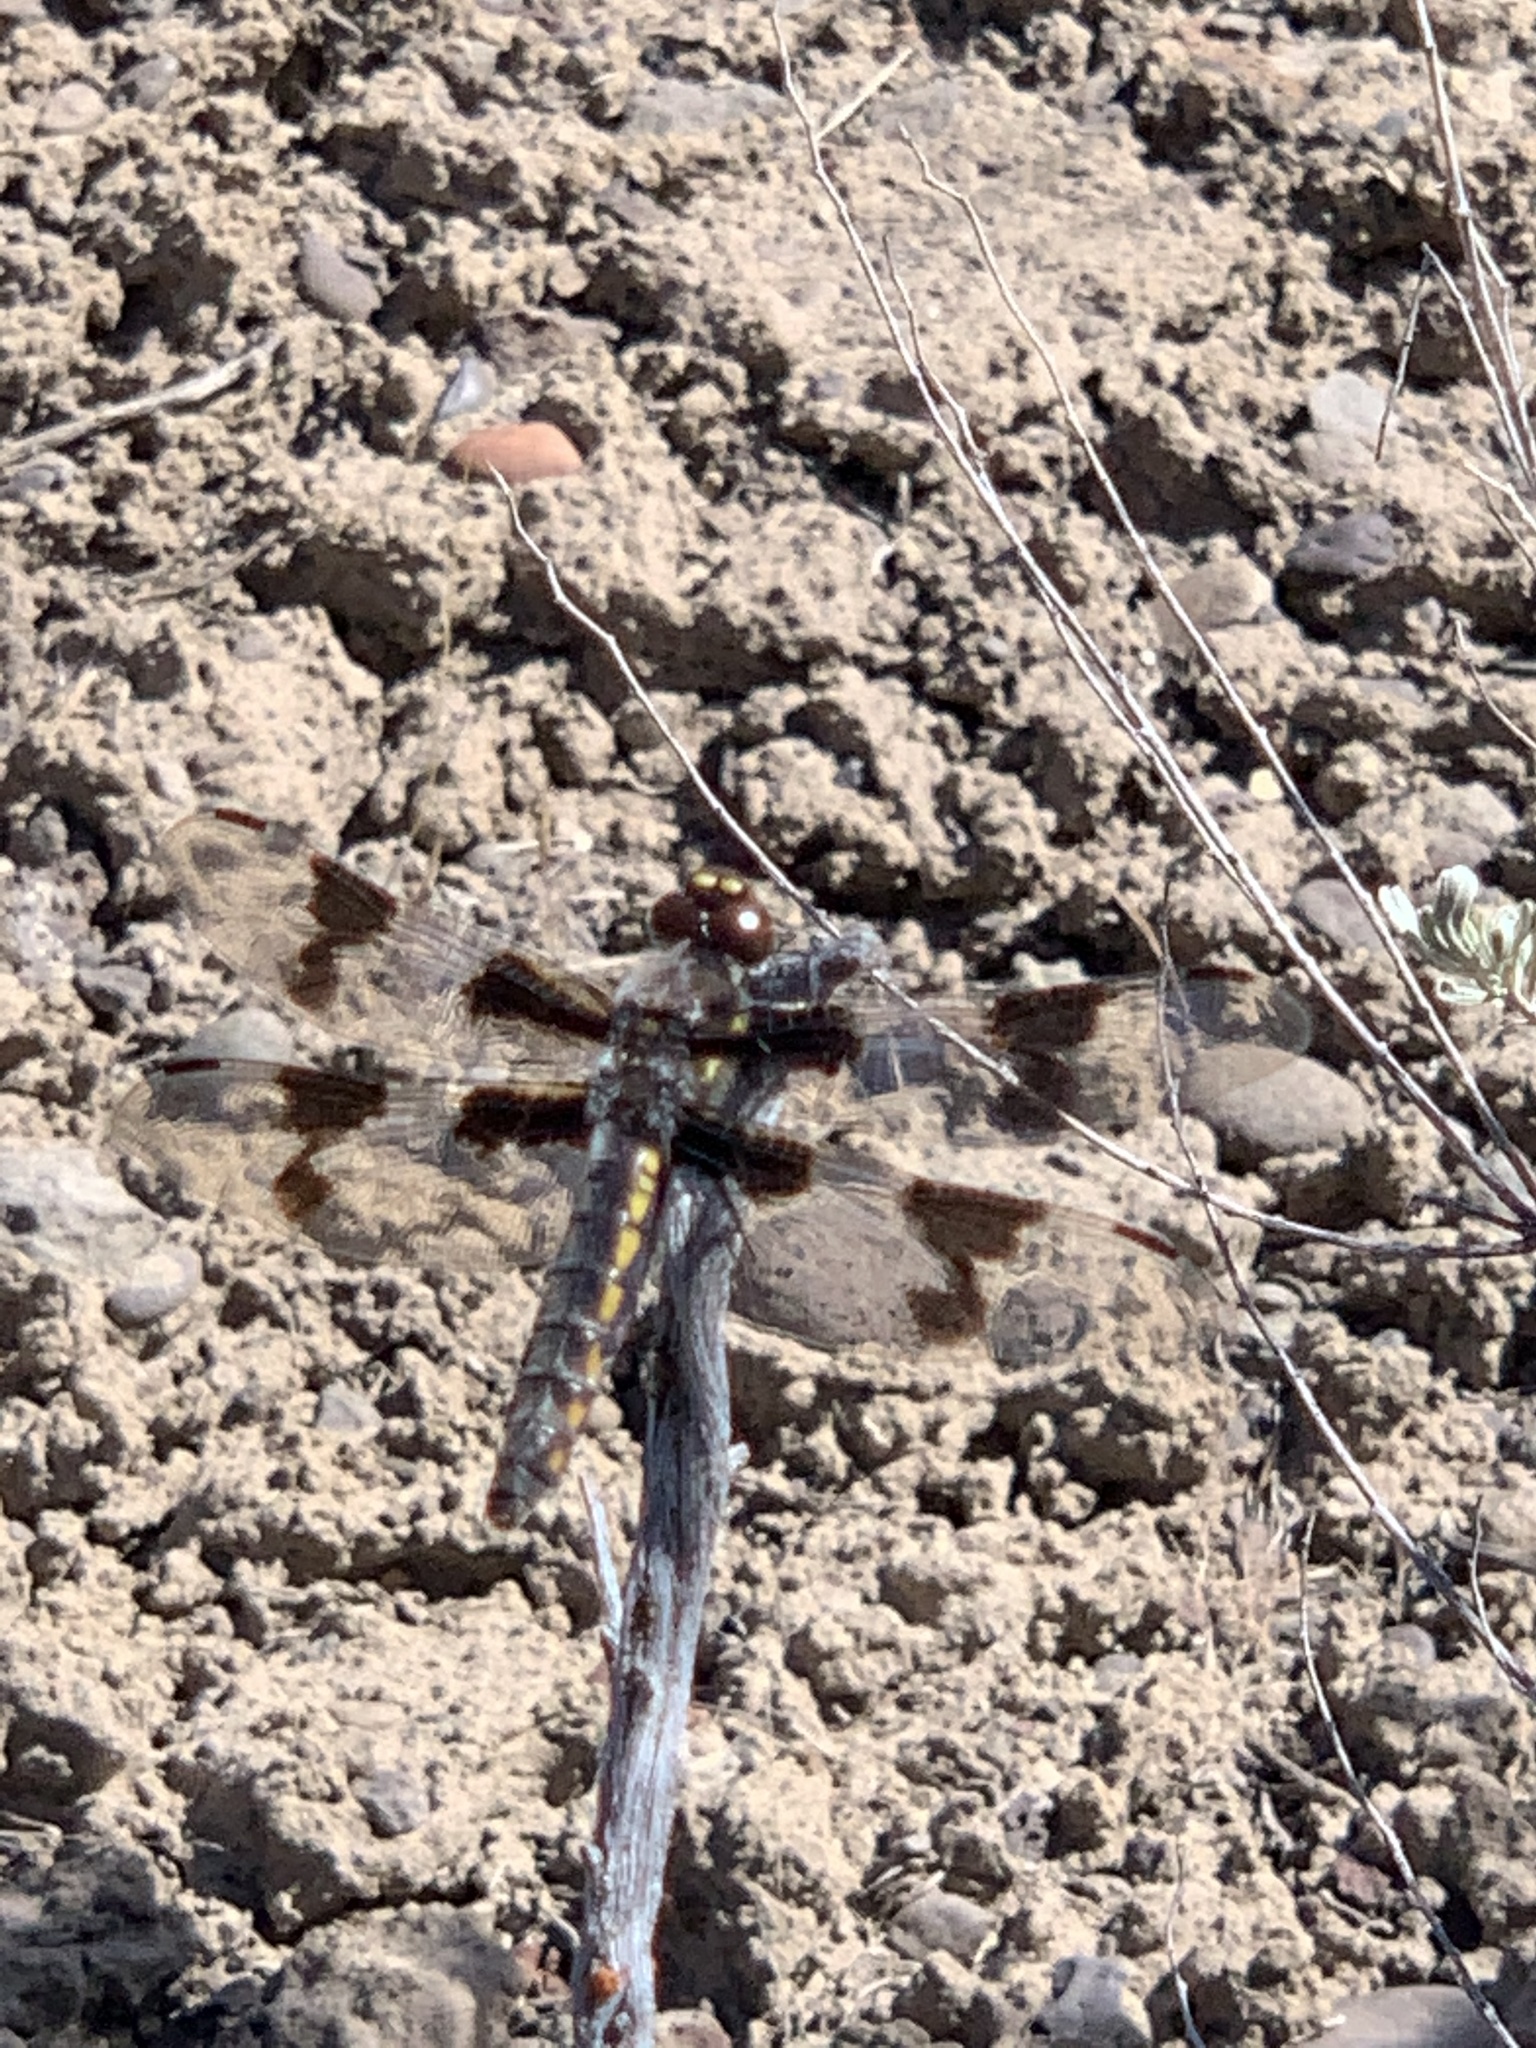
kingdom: Animalia
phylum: Arthropoda
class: Insecta
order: Odonata
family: Libellulidae
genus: Libellula
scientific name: Libellula forensis
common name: Eight-spotted skimmer
